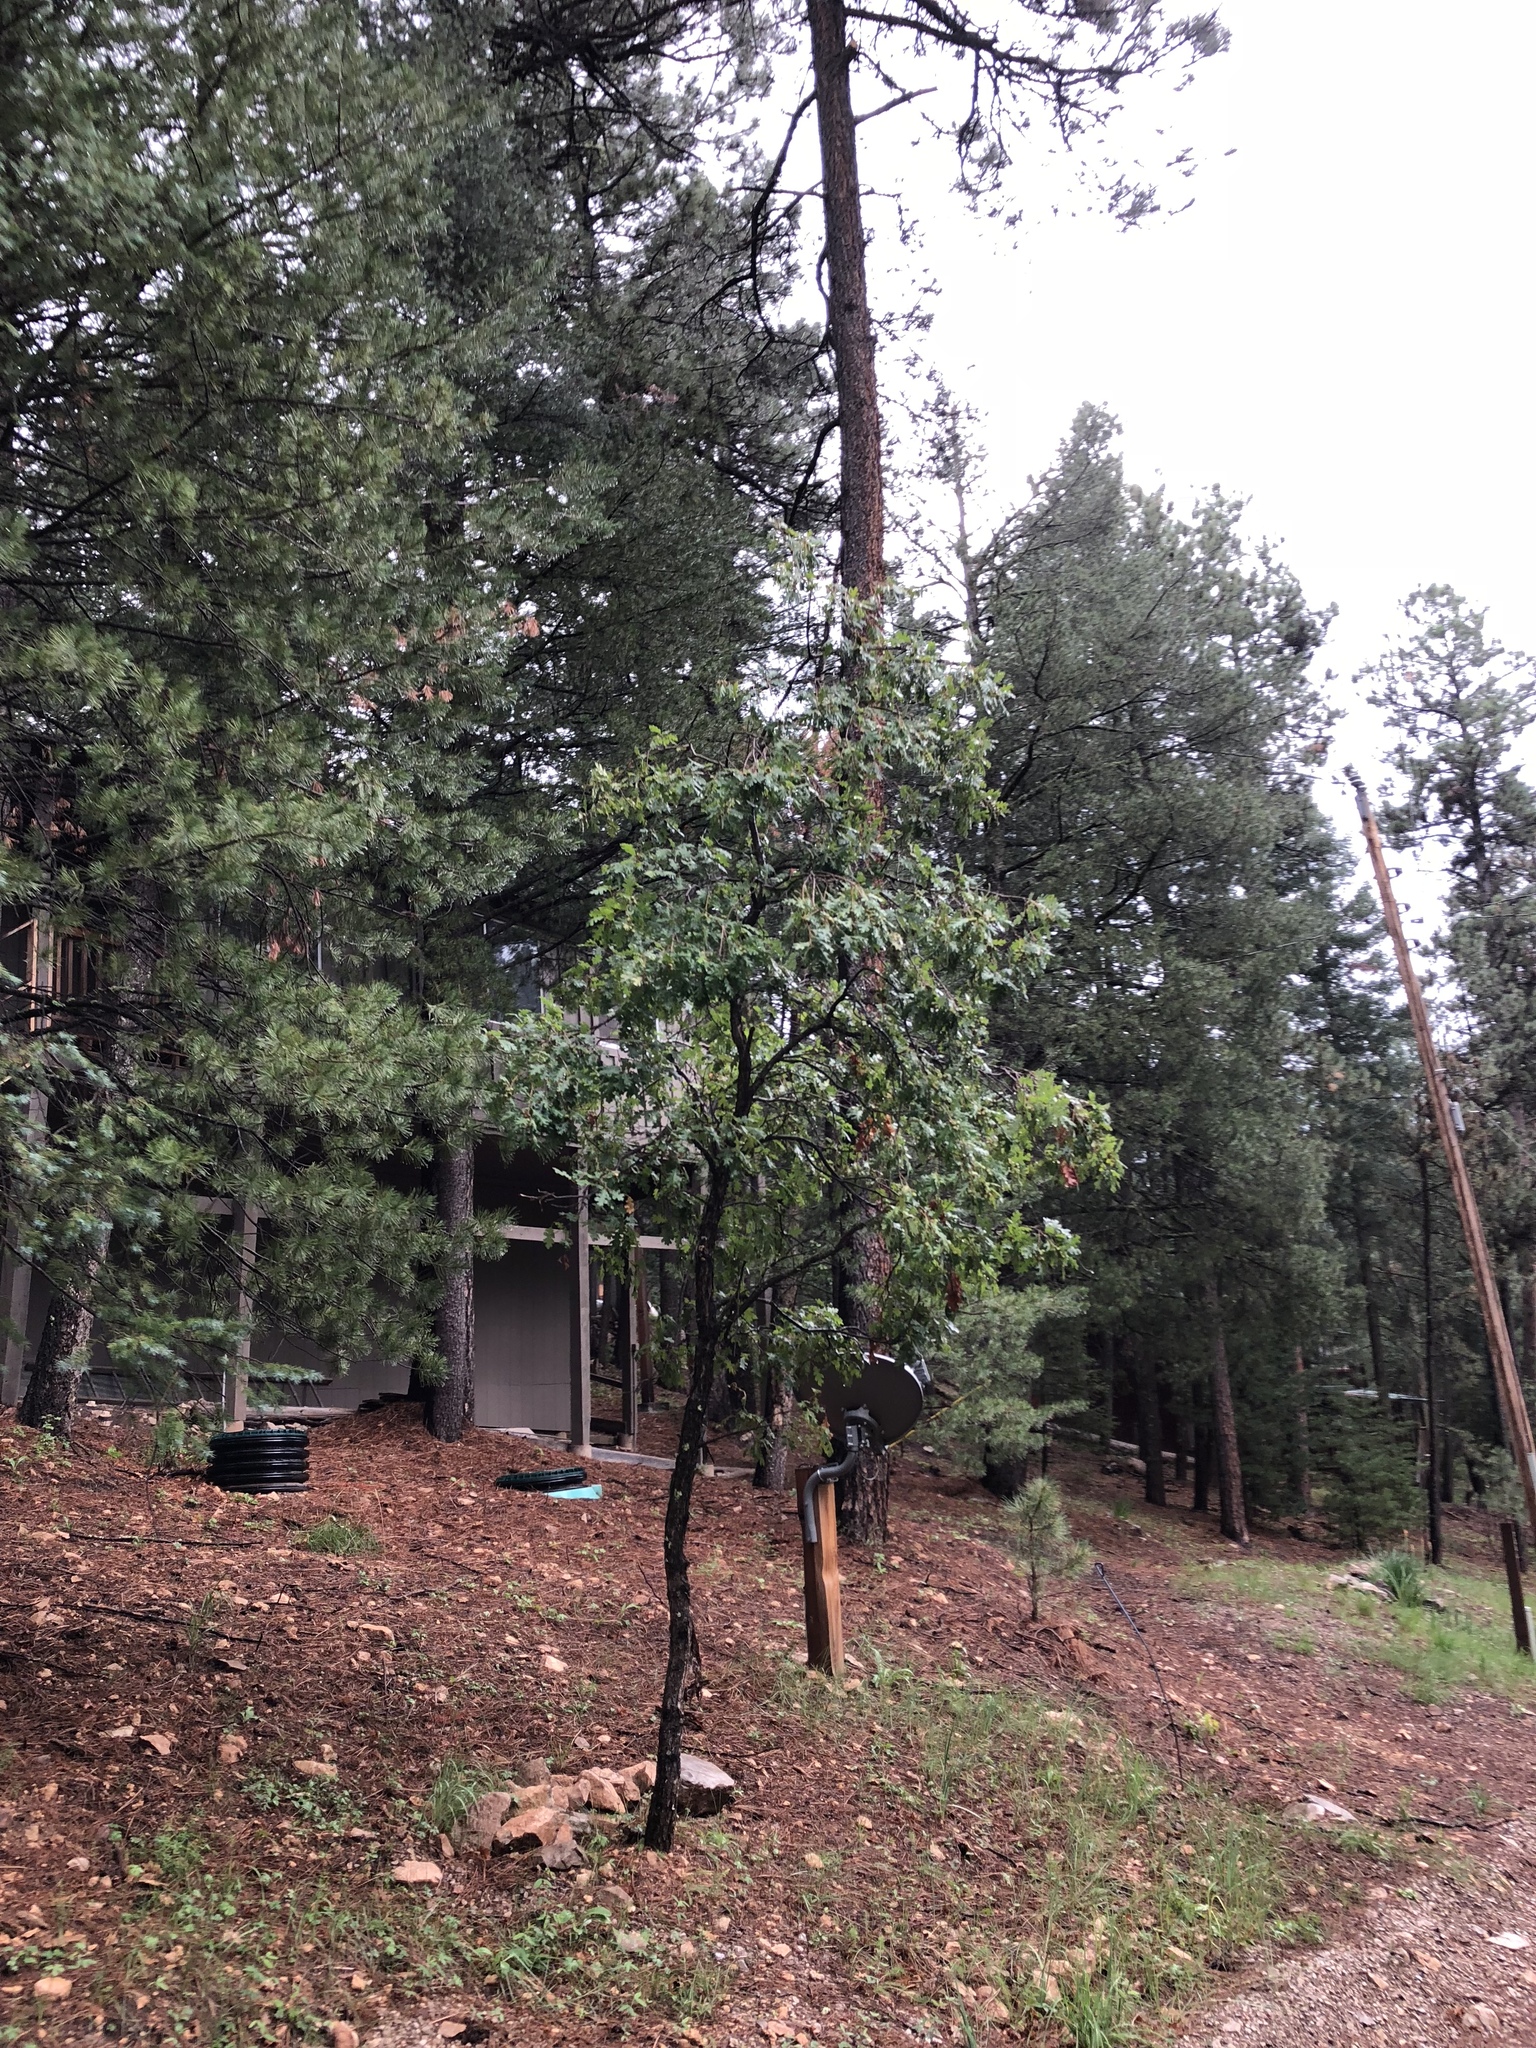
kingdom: Plantae
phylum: Tracheophyta
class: Magnoliopsida
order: Fagales
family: Fagaceae
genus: Quercus
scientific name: Quercus gambelii
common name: Gambel oak
